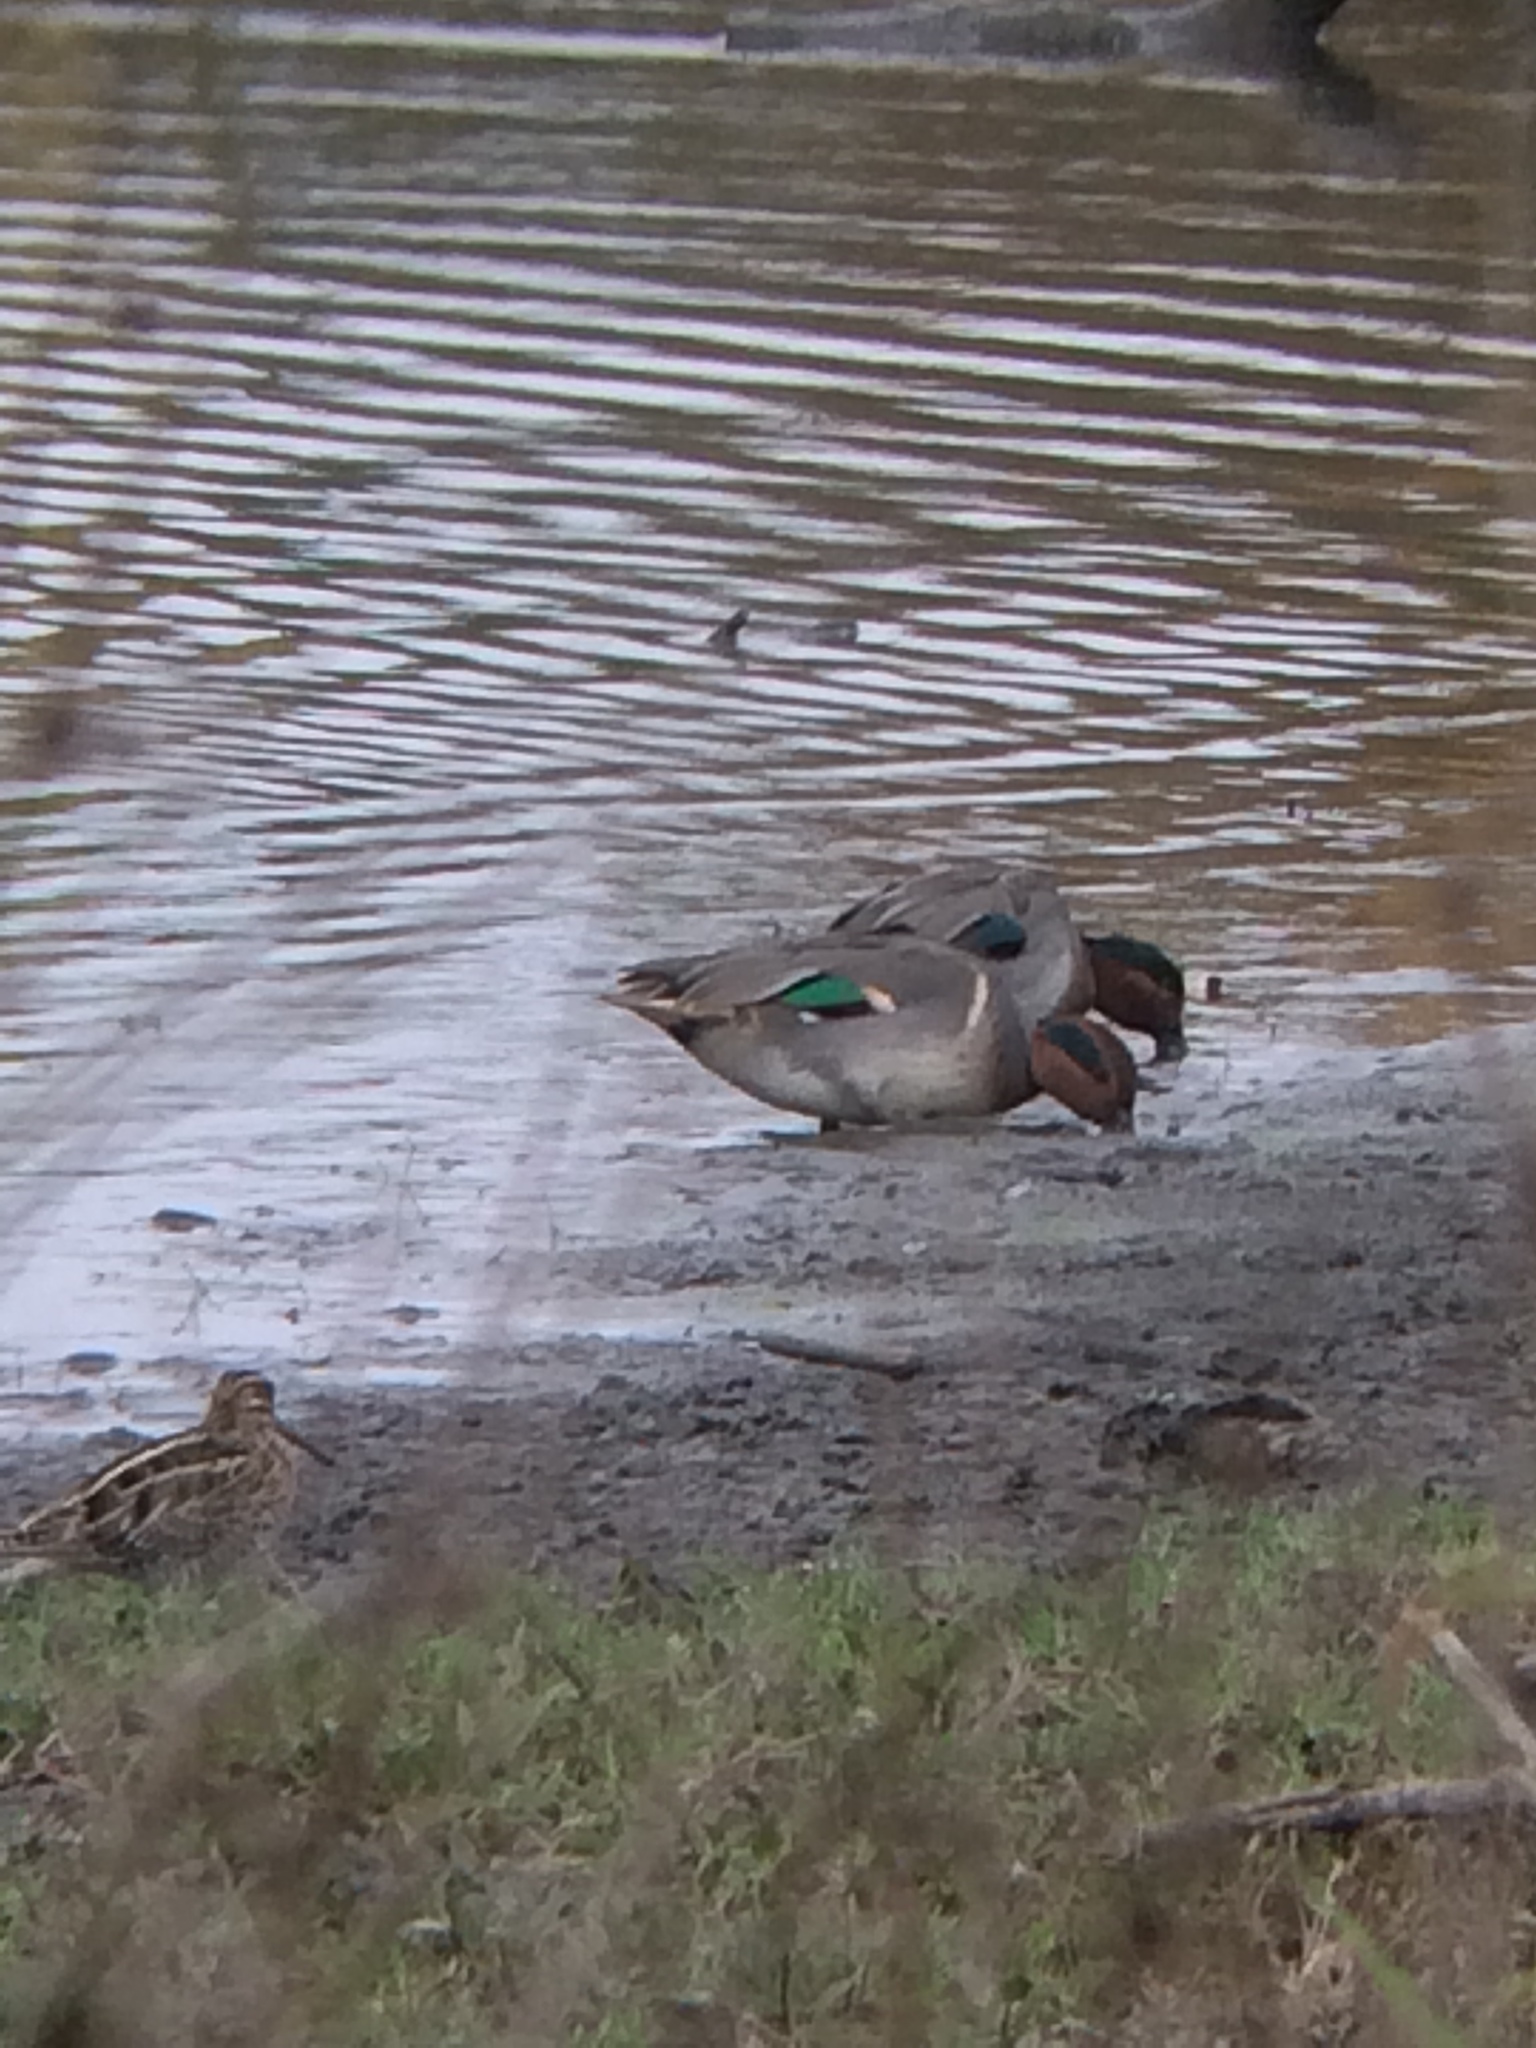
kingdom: Animalia
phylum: Chordata
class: Aves
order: Anseriformes
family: Anatidae
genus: Anas
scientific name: Anas crecca
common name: Eurasian teal
